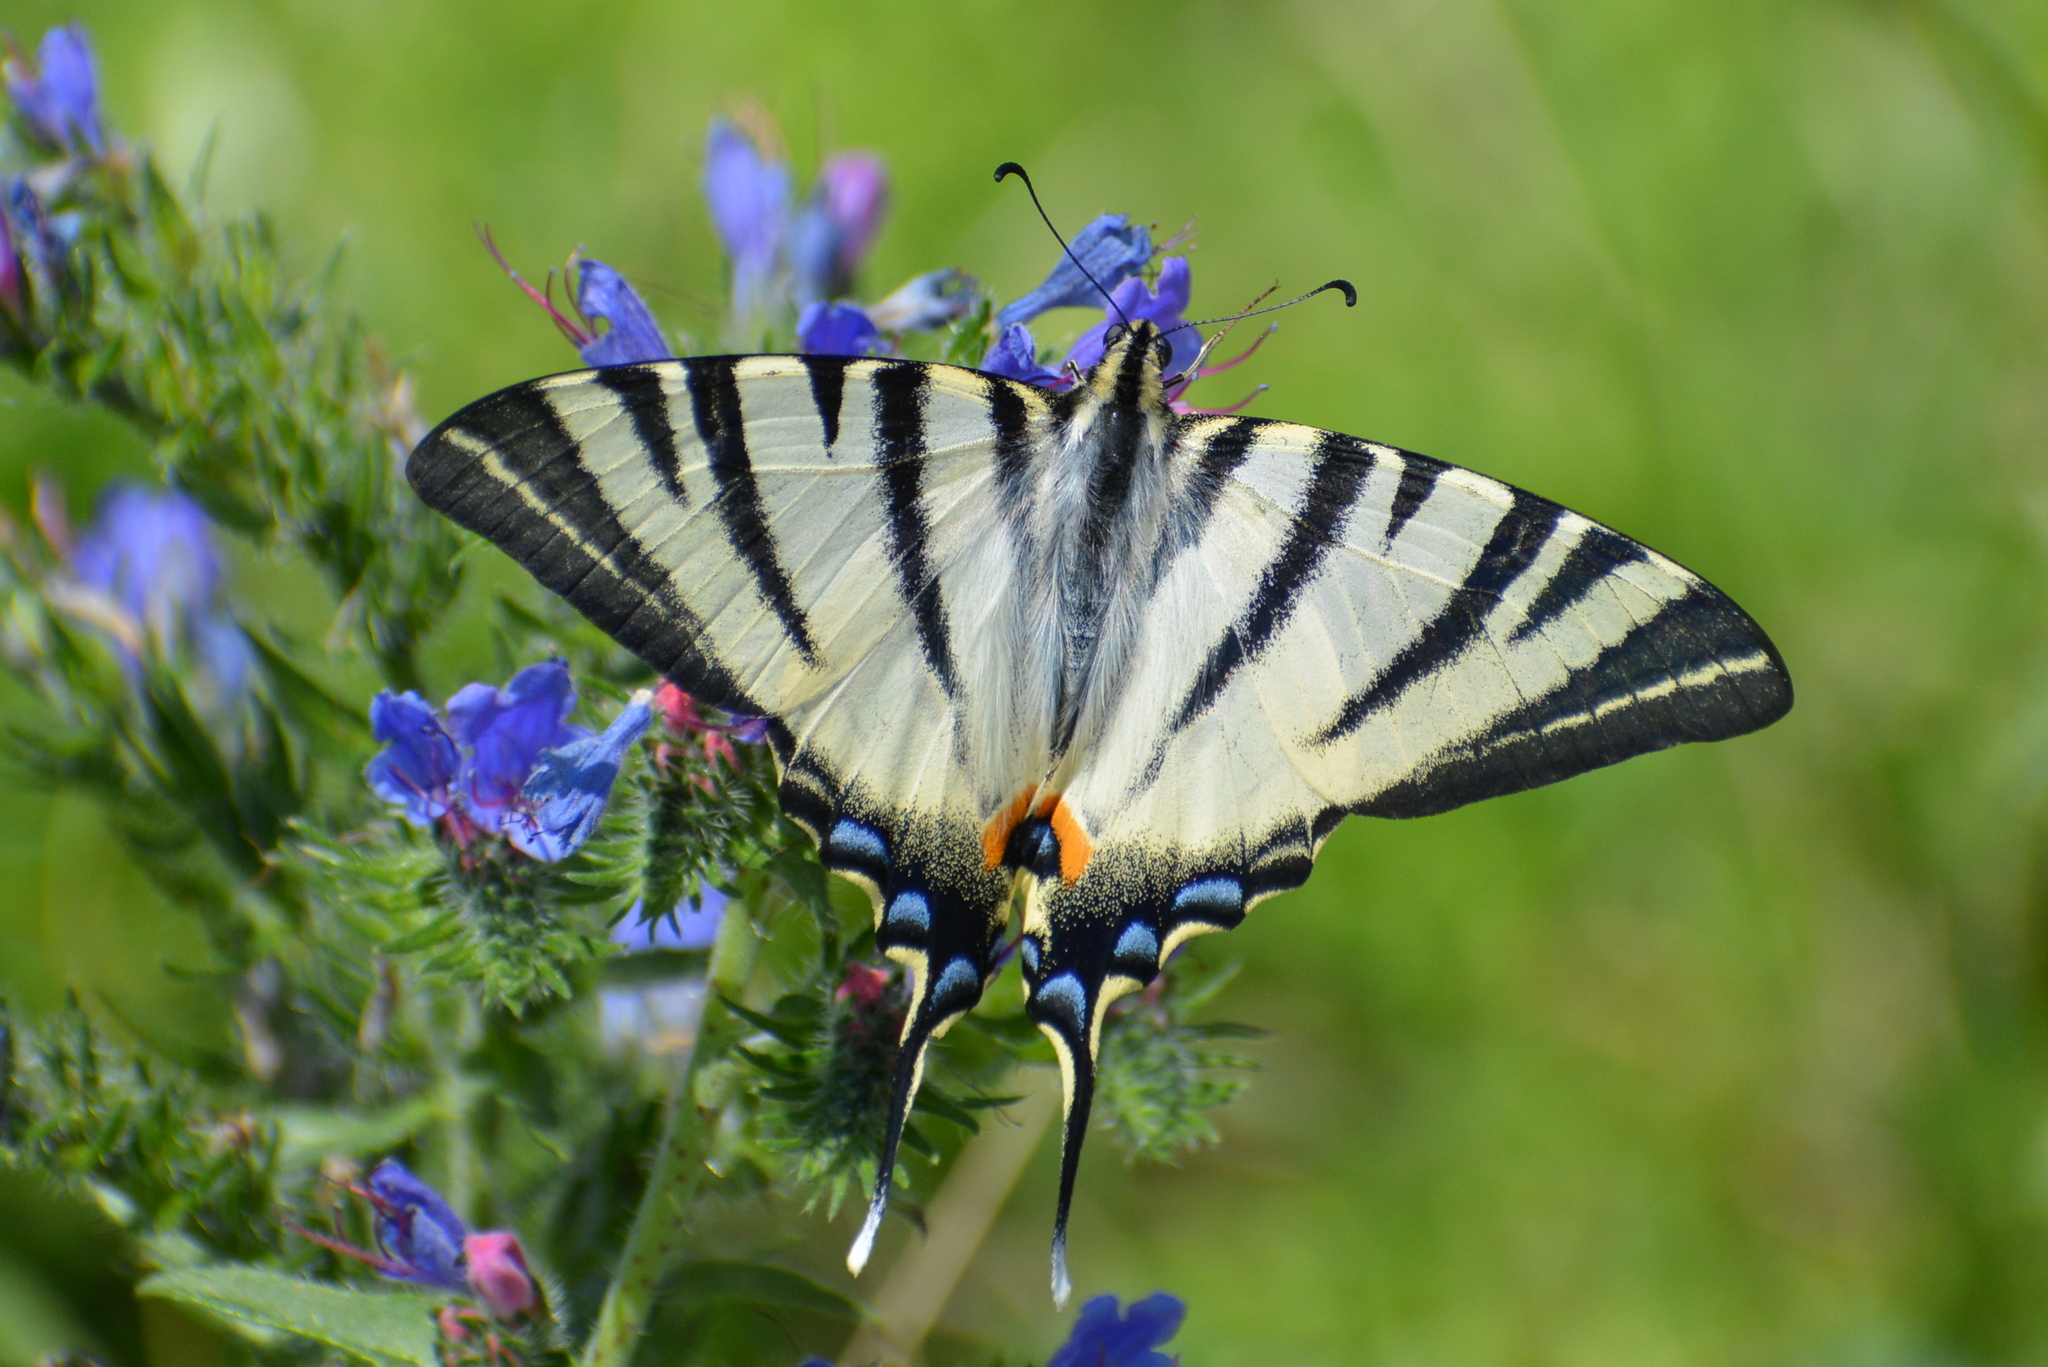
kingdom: Animalia
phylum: Arthropoda
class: Insecta
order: Lepidoptera
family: Papilionidae
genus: Iphiclides
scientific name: Iphiclides podalirius
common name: Scarce swallowtail
